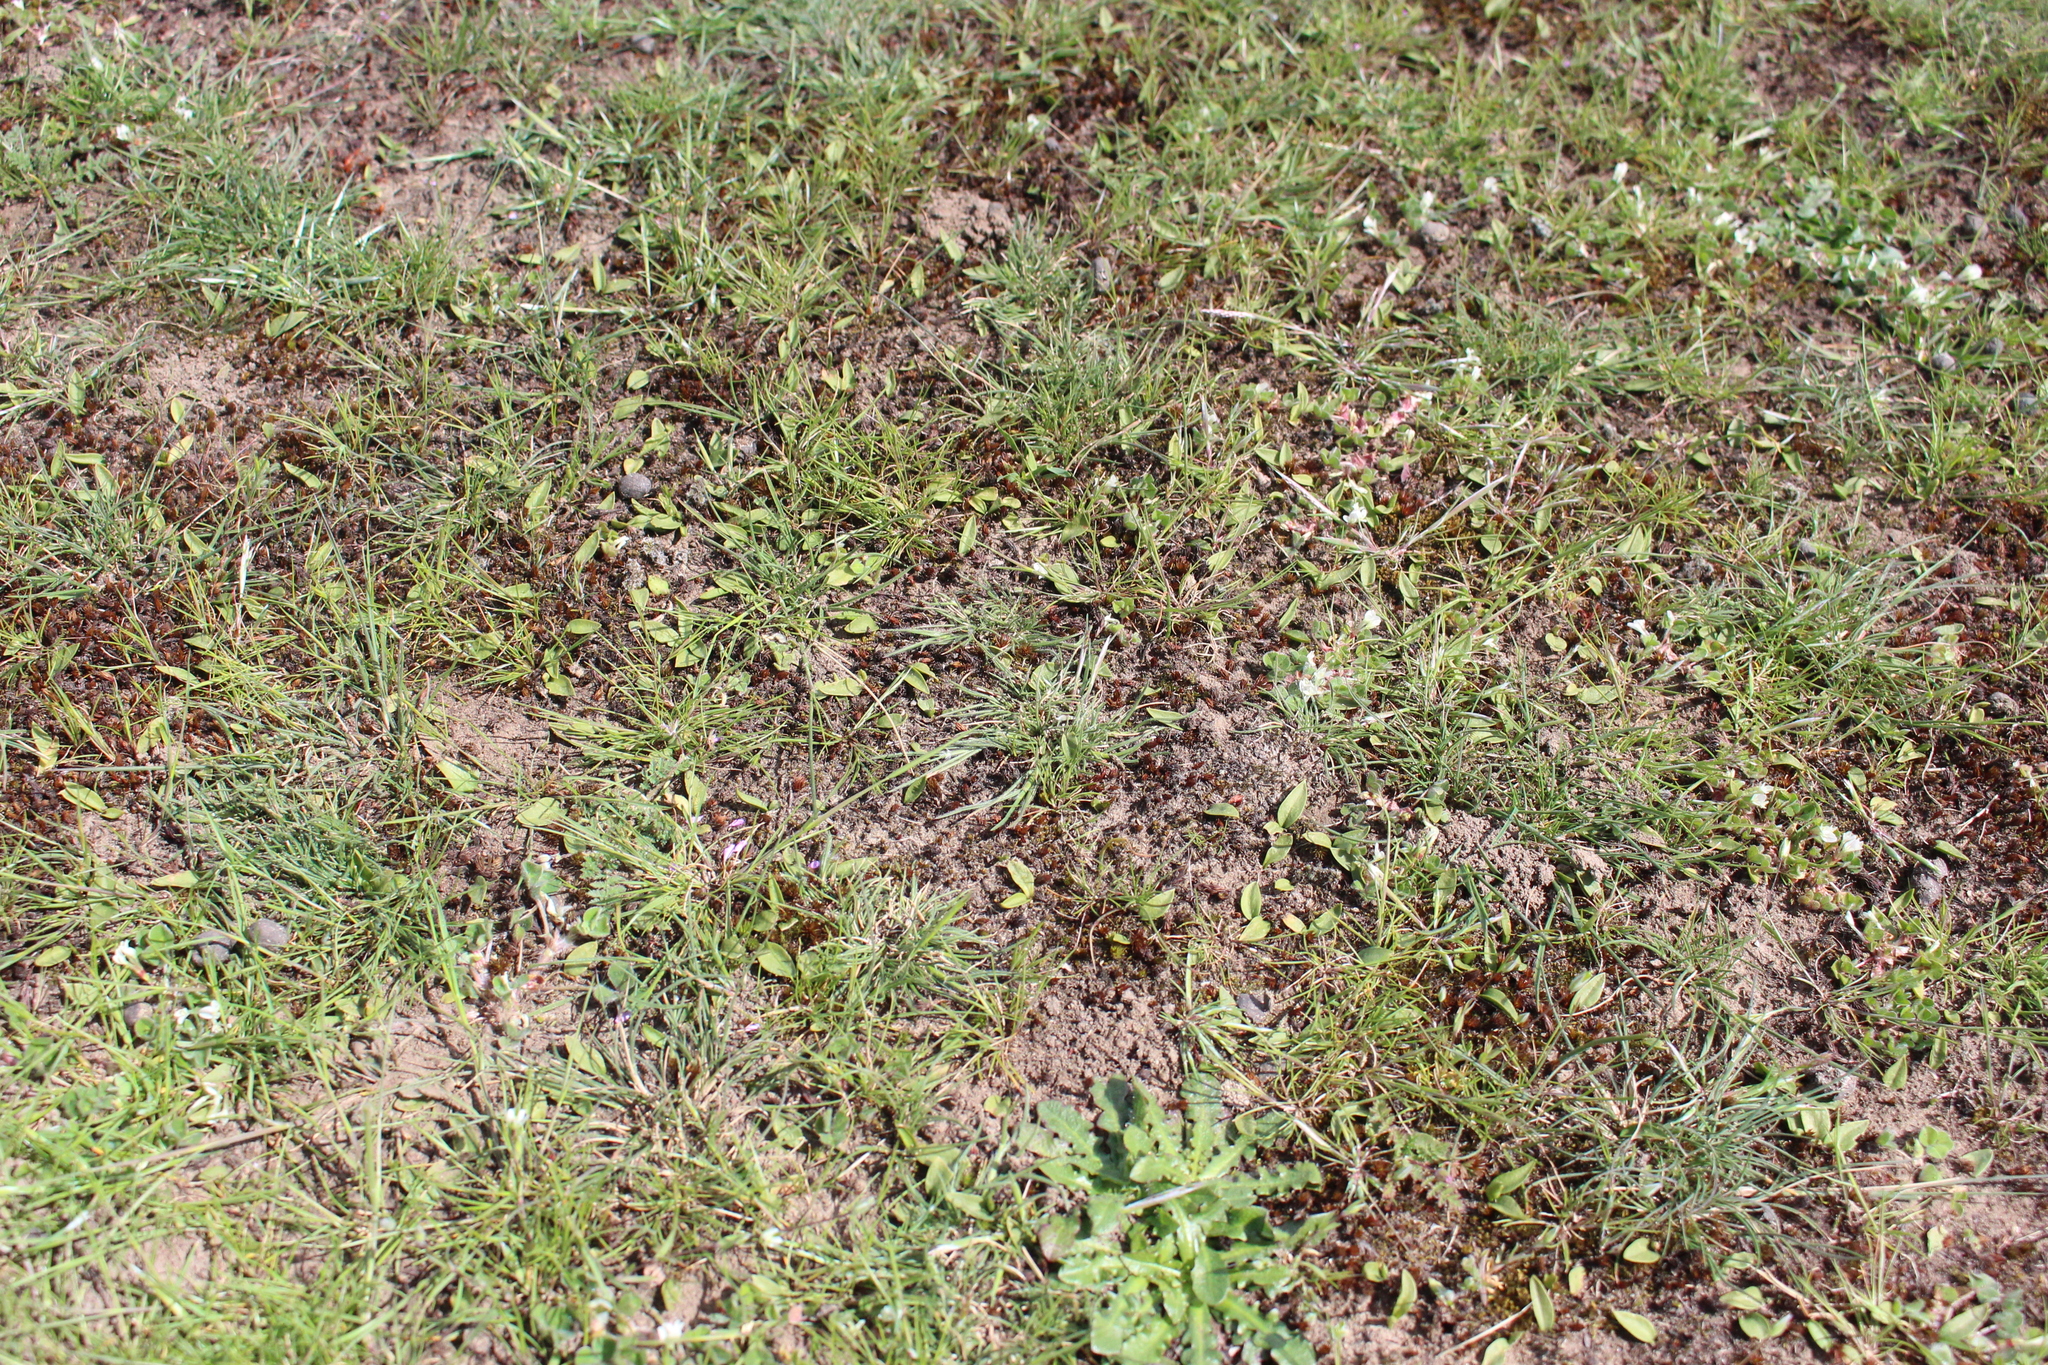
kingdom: Plantae
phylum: Tracheophyta
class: Polypodiopsida
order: Ophioglossales
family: Ophioglossaceae
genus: Ophioglossum
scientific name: Ophioglossum coriaceum
